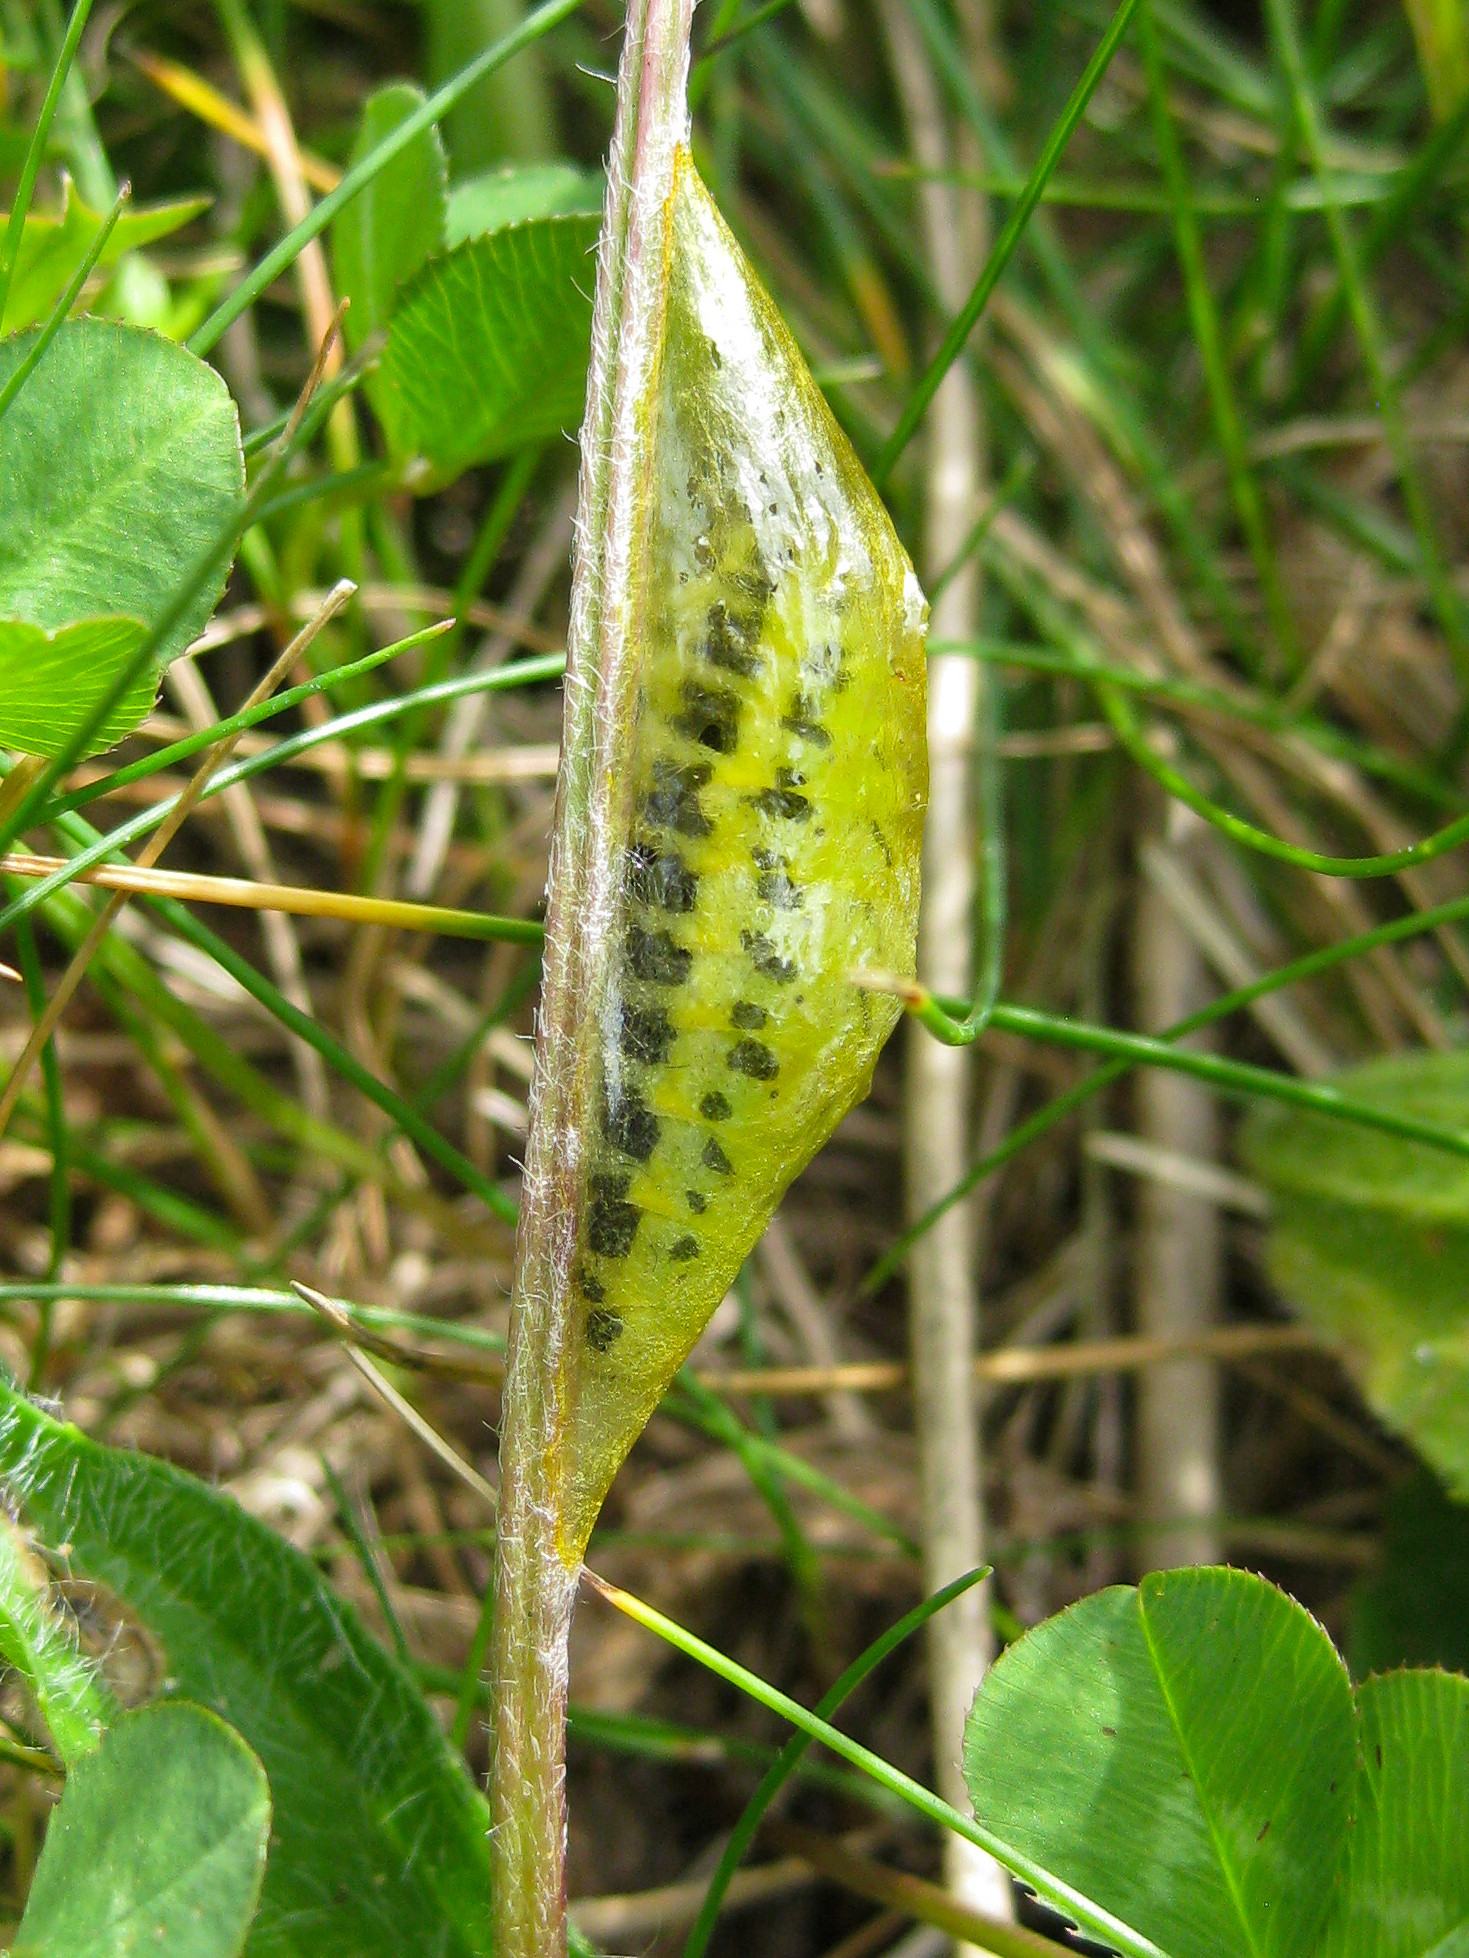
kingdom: Animalia
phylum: Arthropoda
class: Insecta
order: Lepidoptera
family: Zygaenidae
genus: Zygaena
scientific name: Zygaena filipendulae
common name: Six-spot burnet
